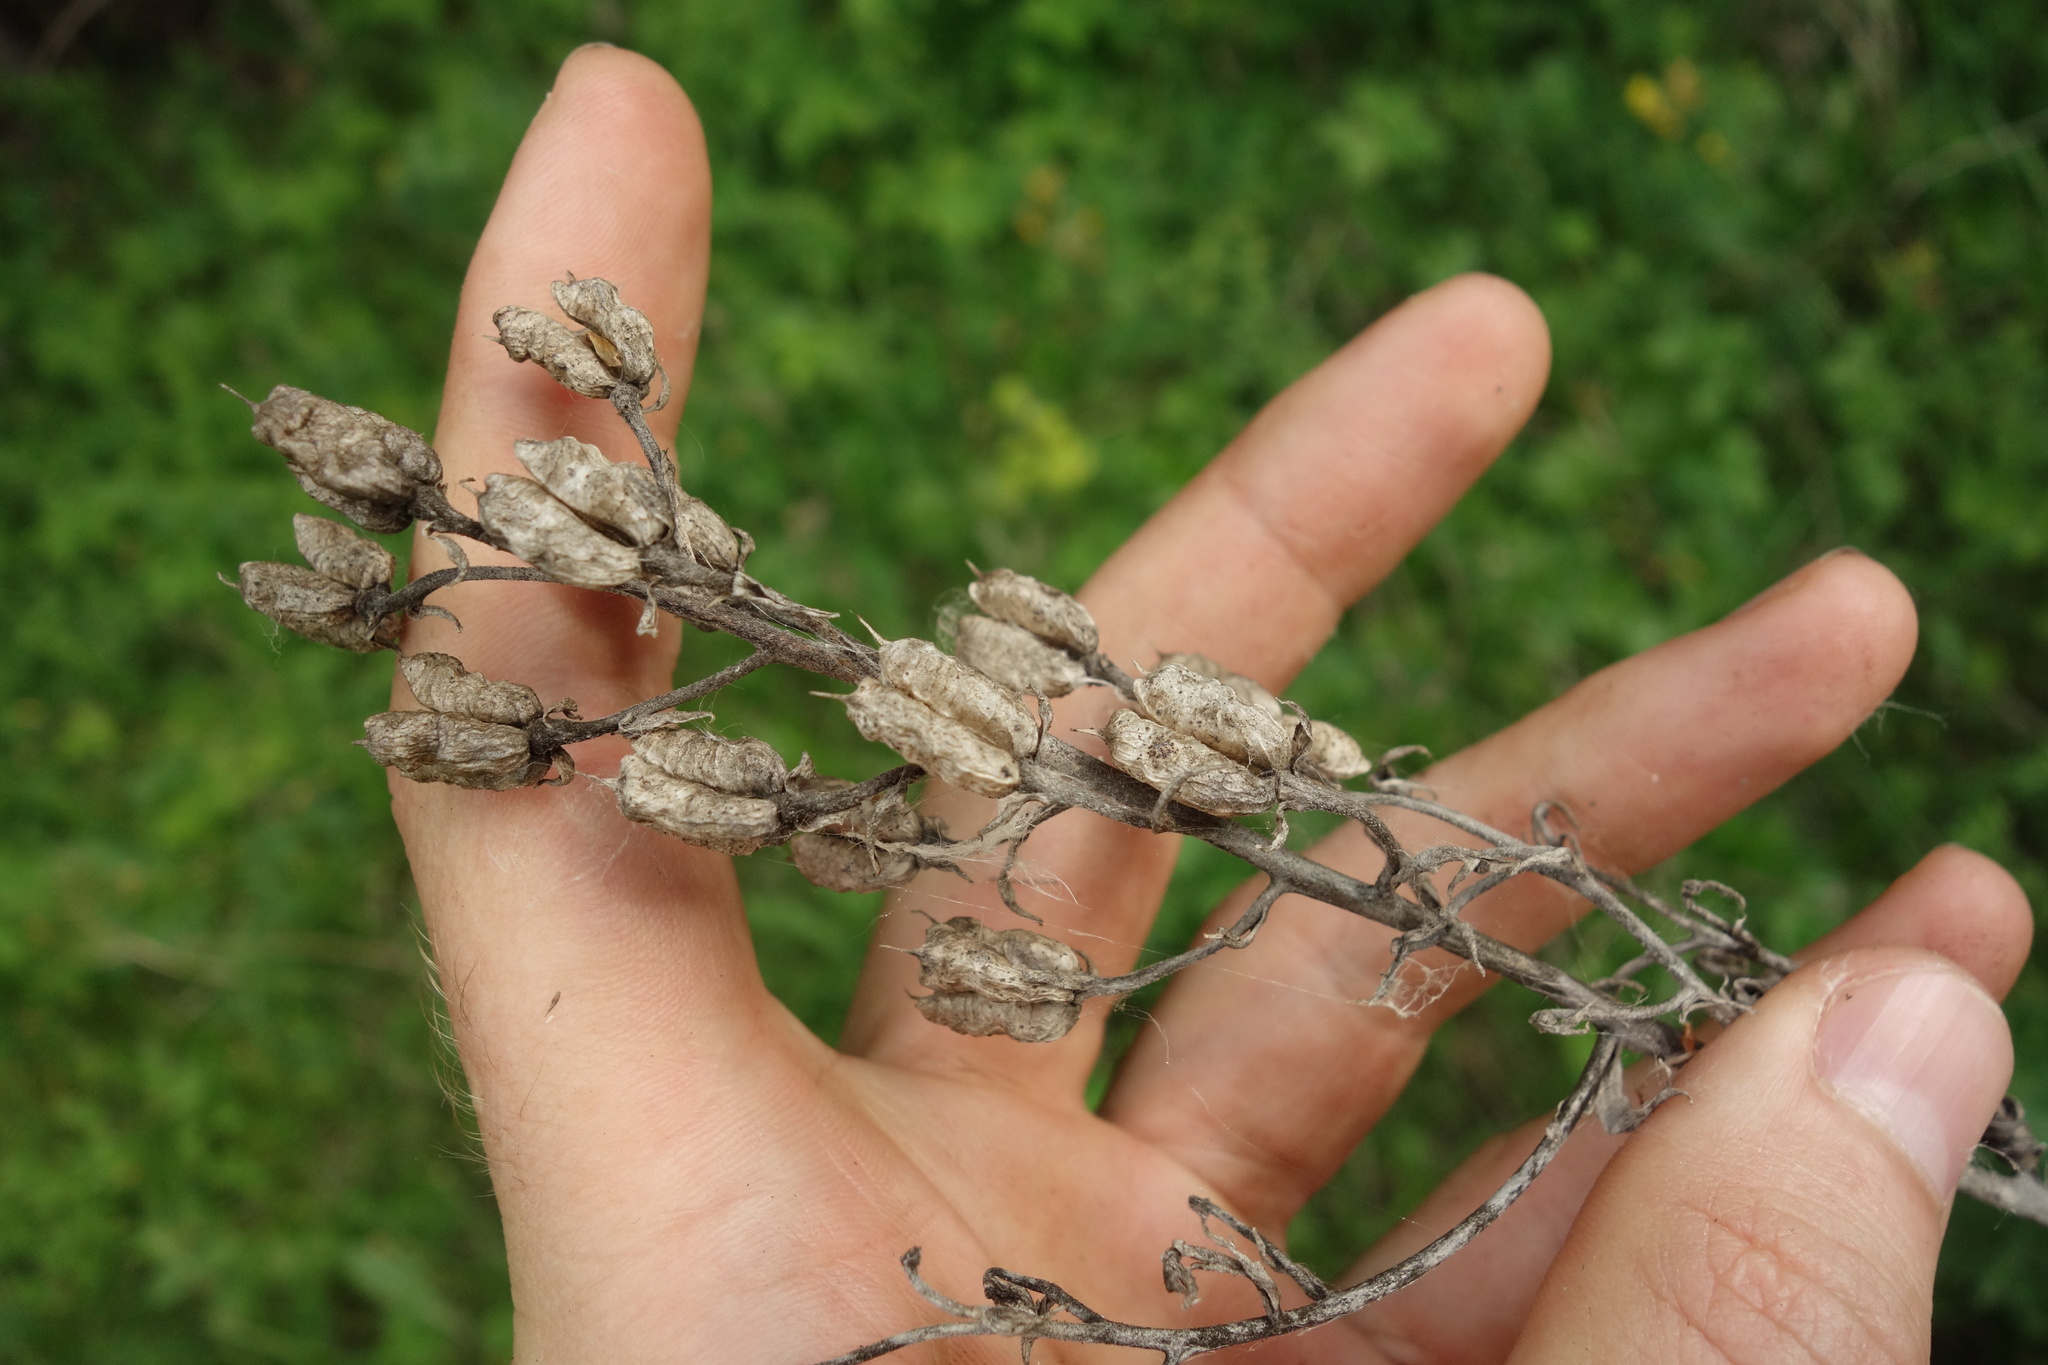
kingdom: Plantae
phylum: Tracheophyta
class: Magnoliopsida
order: Ranunculales
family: Ranunculaceae
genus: Delphinium
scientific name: Delphinium cuneatum
